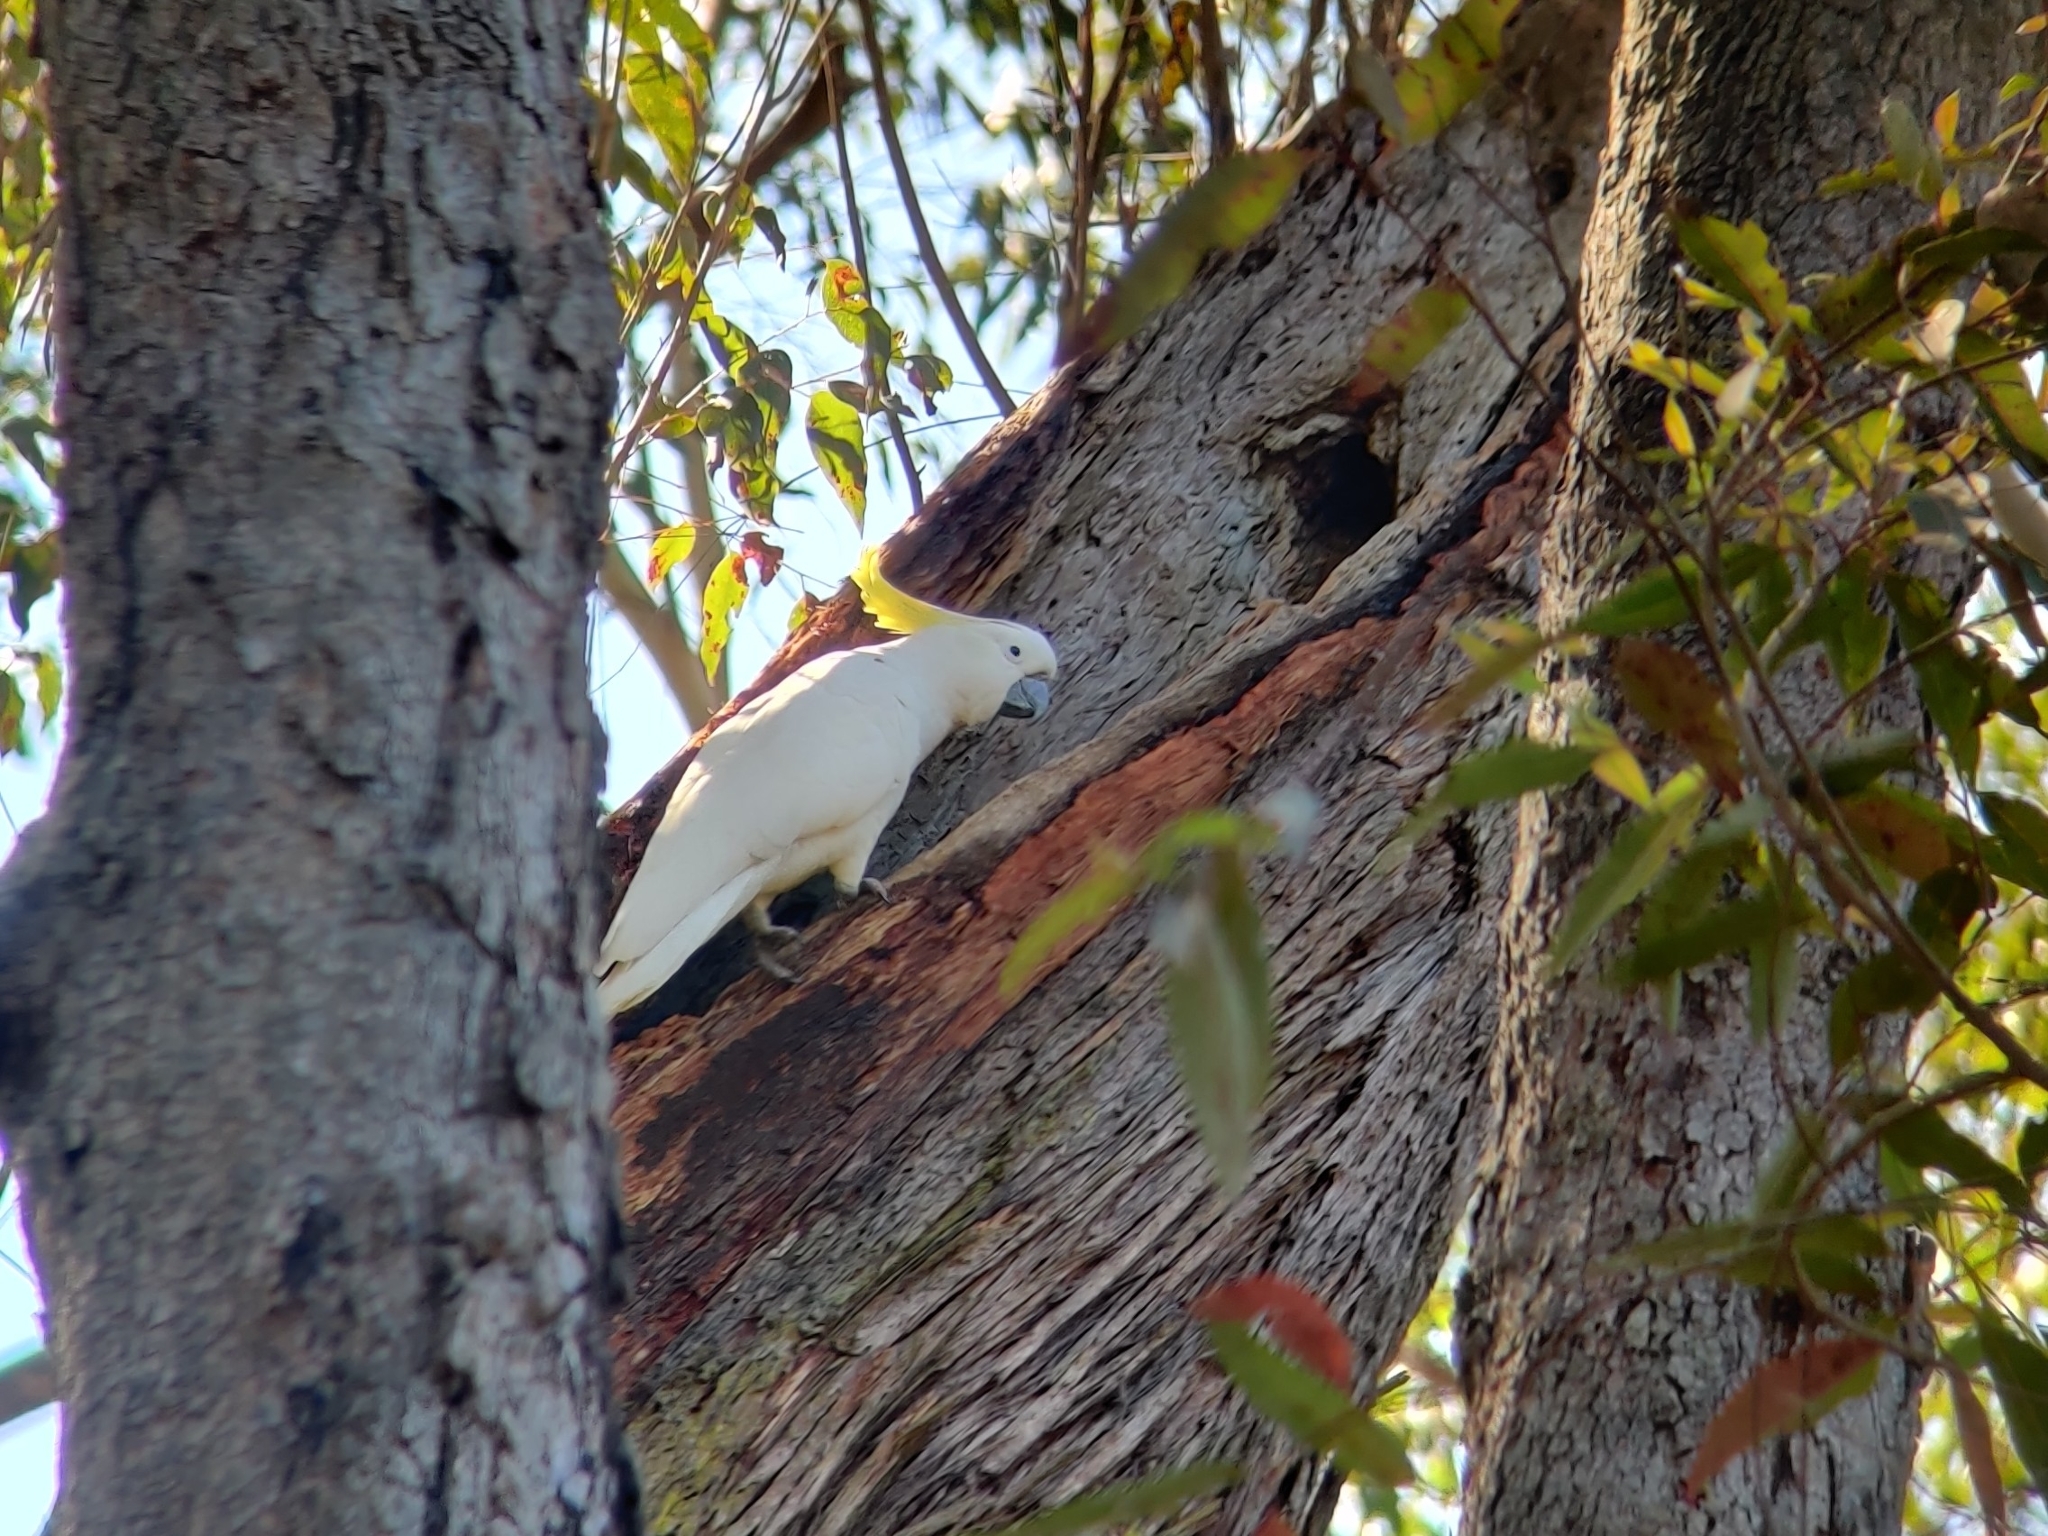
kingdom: Animalia
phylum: Chordata
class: Aves
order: Psittaciformes
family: Psittacidae
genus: Cacatua
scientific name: Cacatua galerita
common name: Sulphur-crested cockatoo
